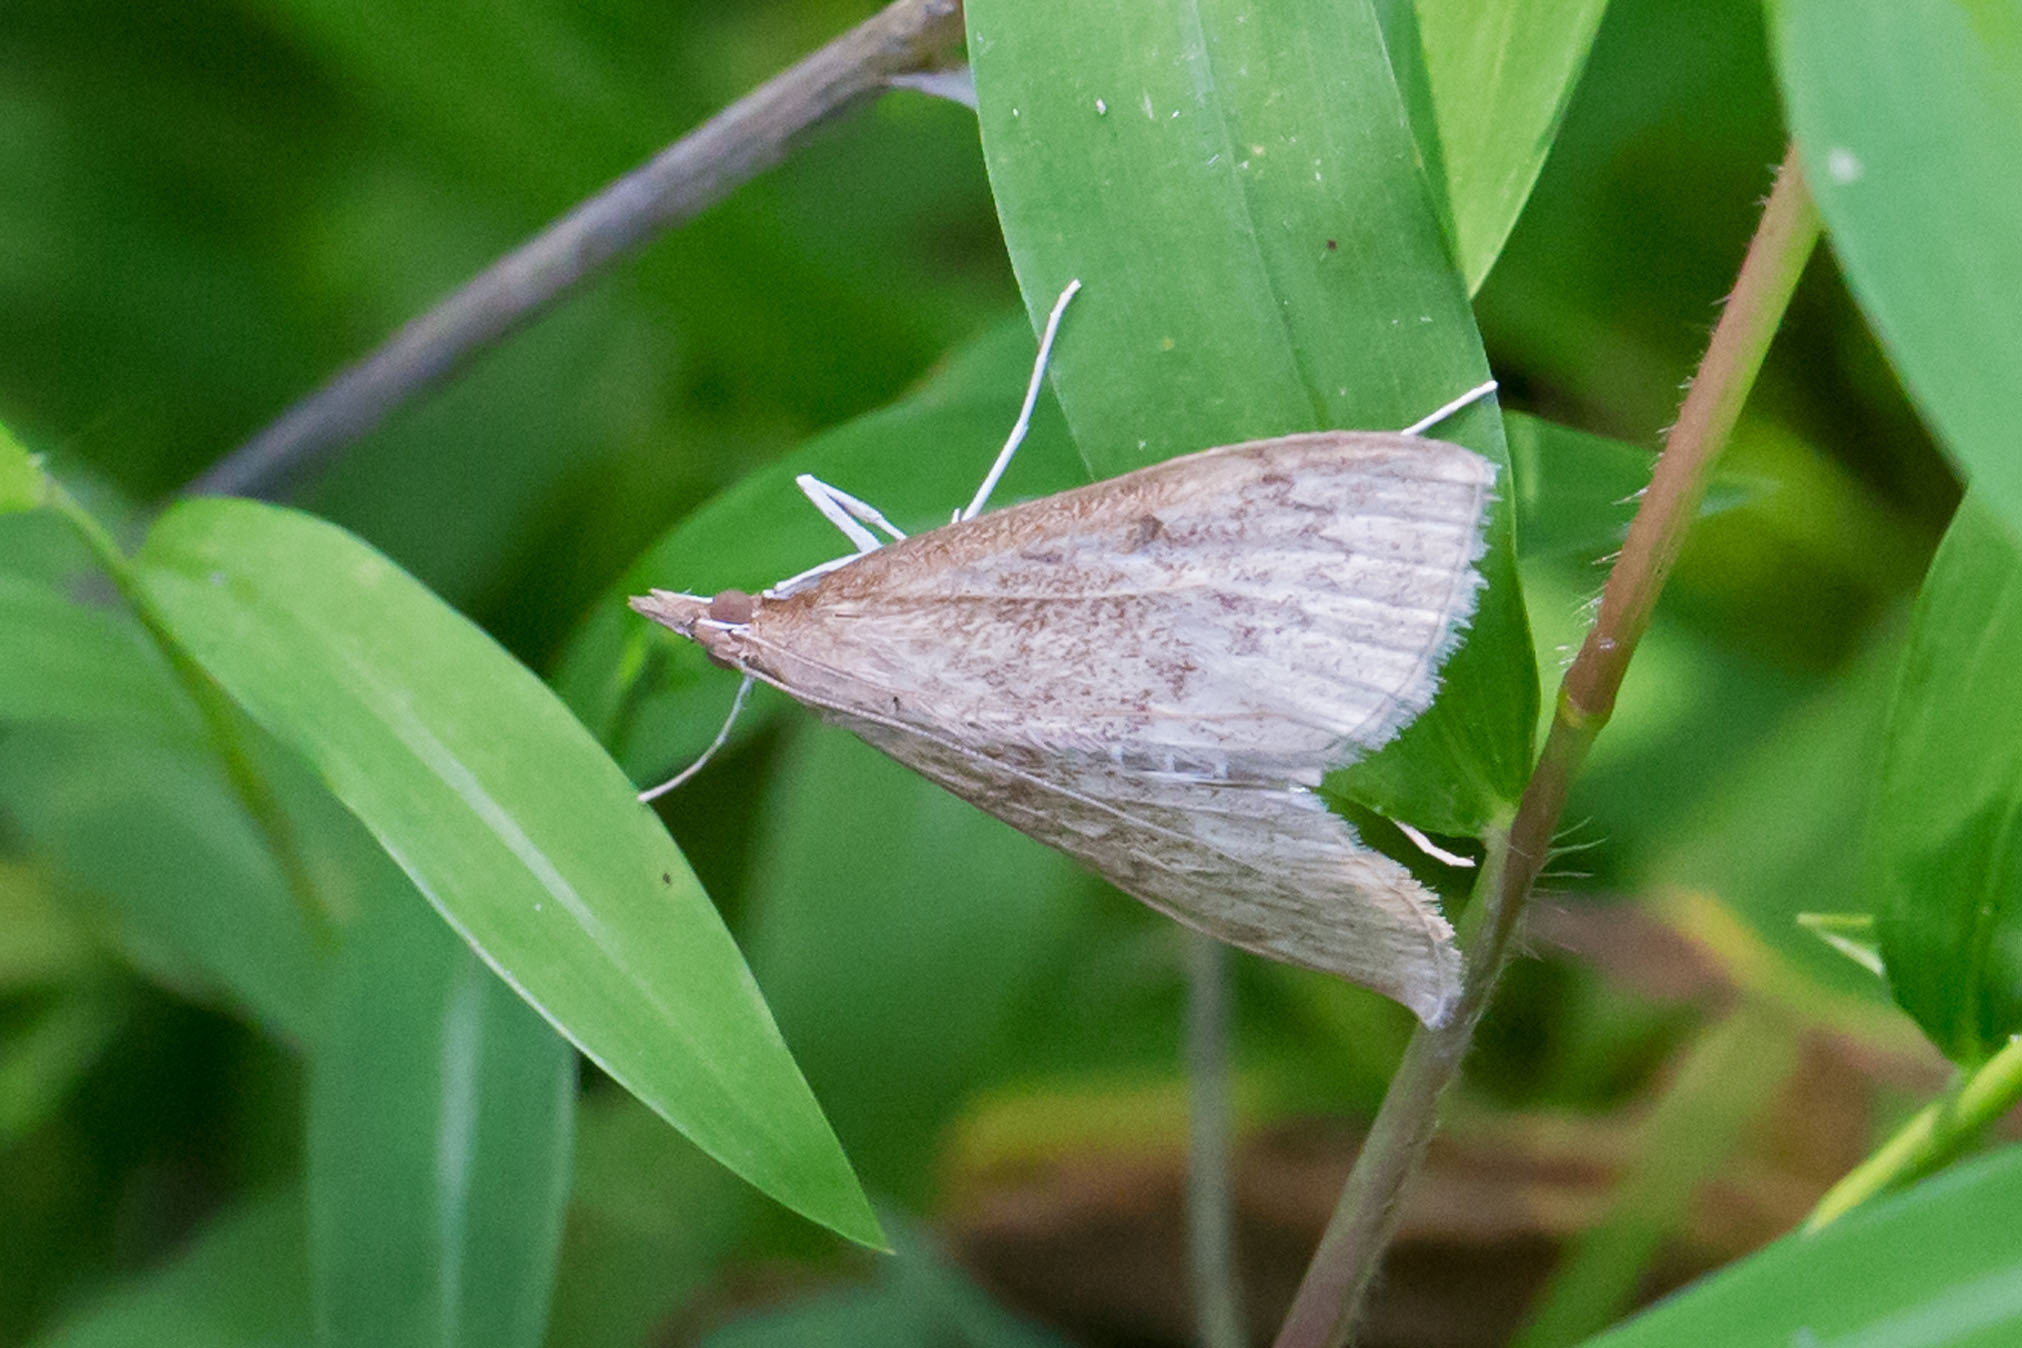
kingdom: Animalia
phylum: Arthropoda
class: Insecta
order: Lepidoptera
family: Crambidae
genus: Saucrobotys
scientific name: Saucrobotys futilalis
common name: Dogbane saucrobotys moth
